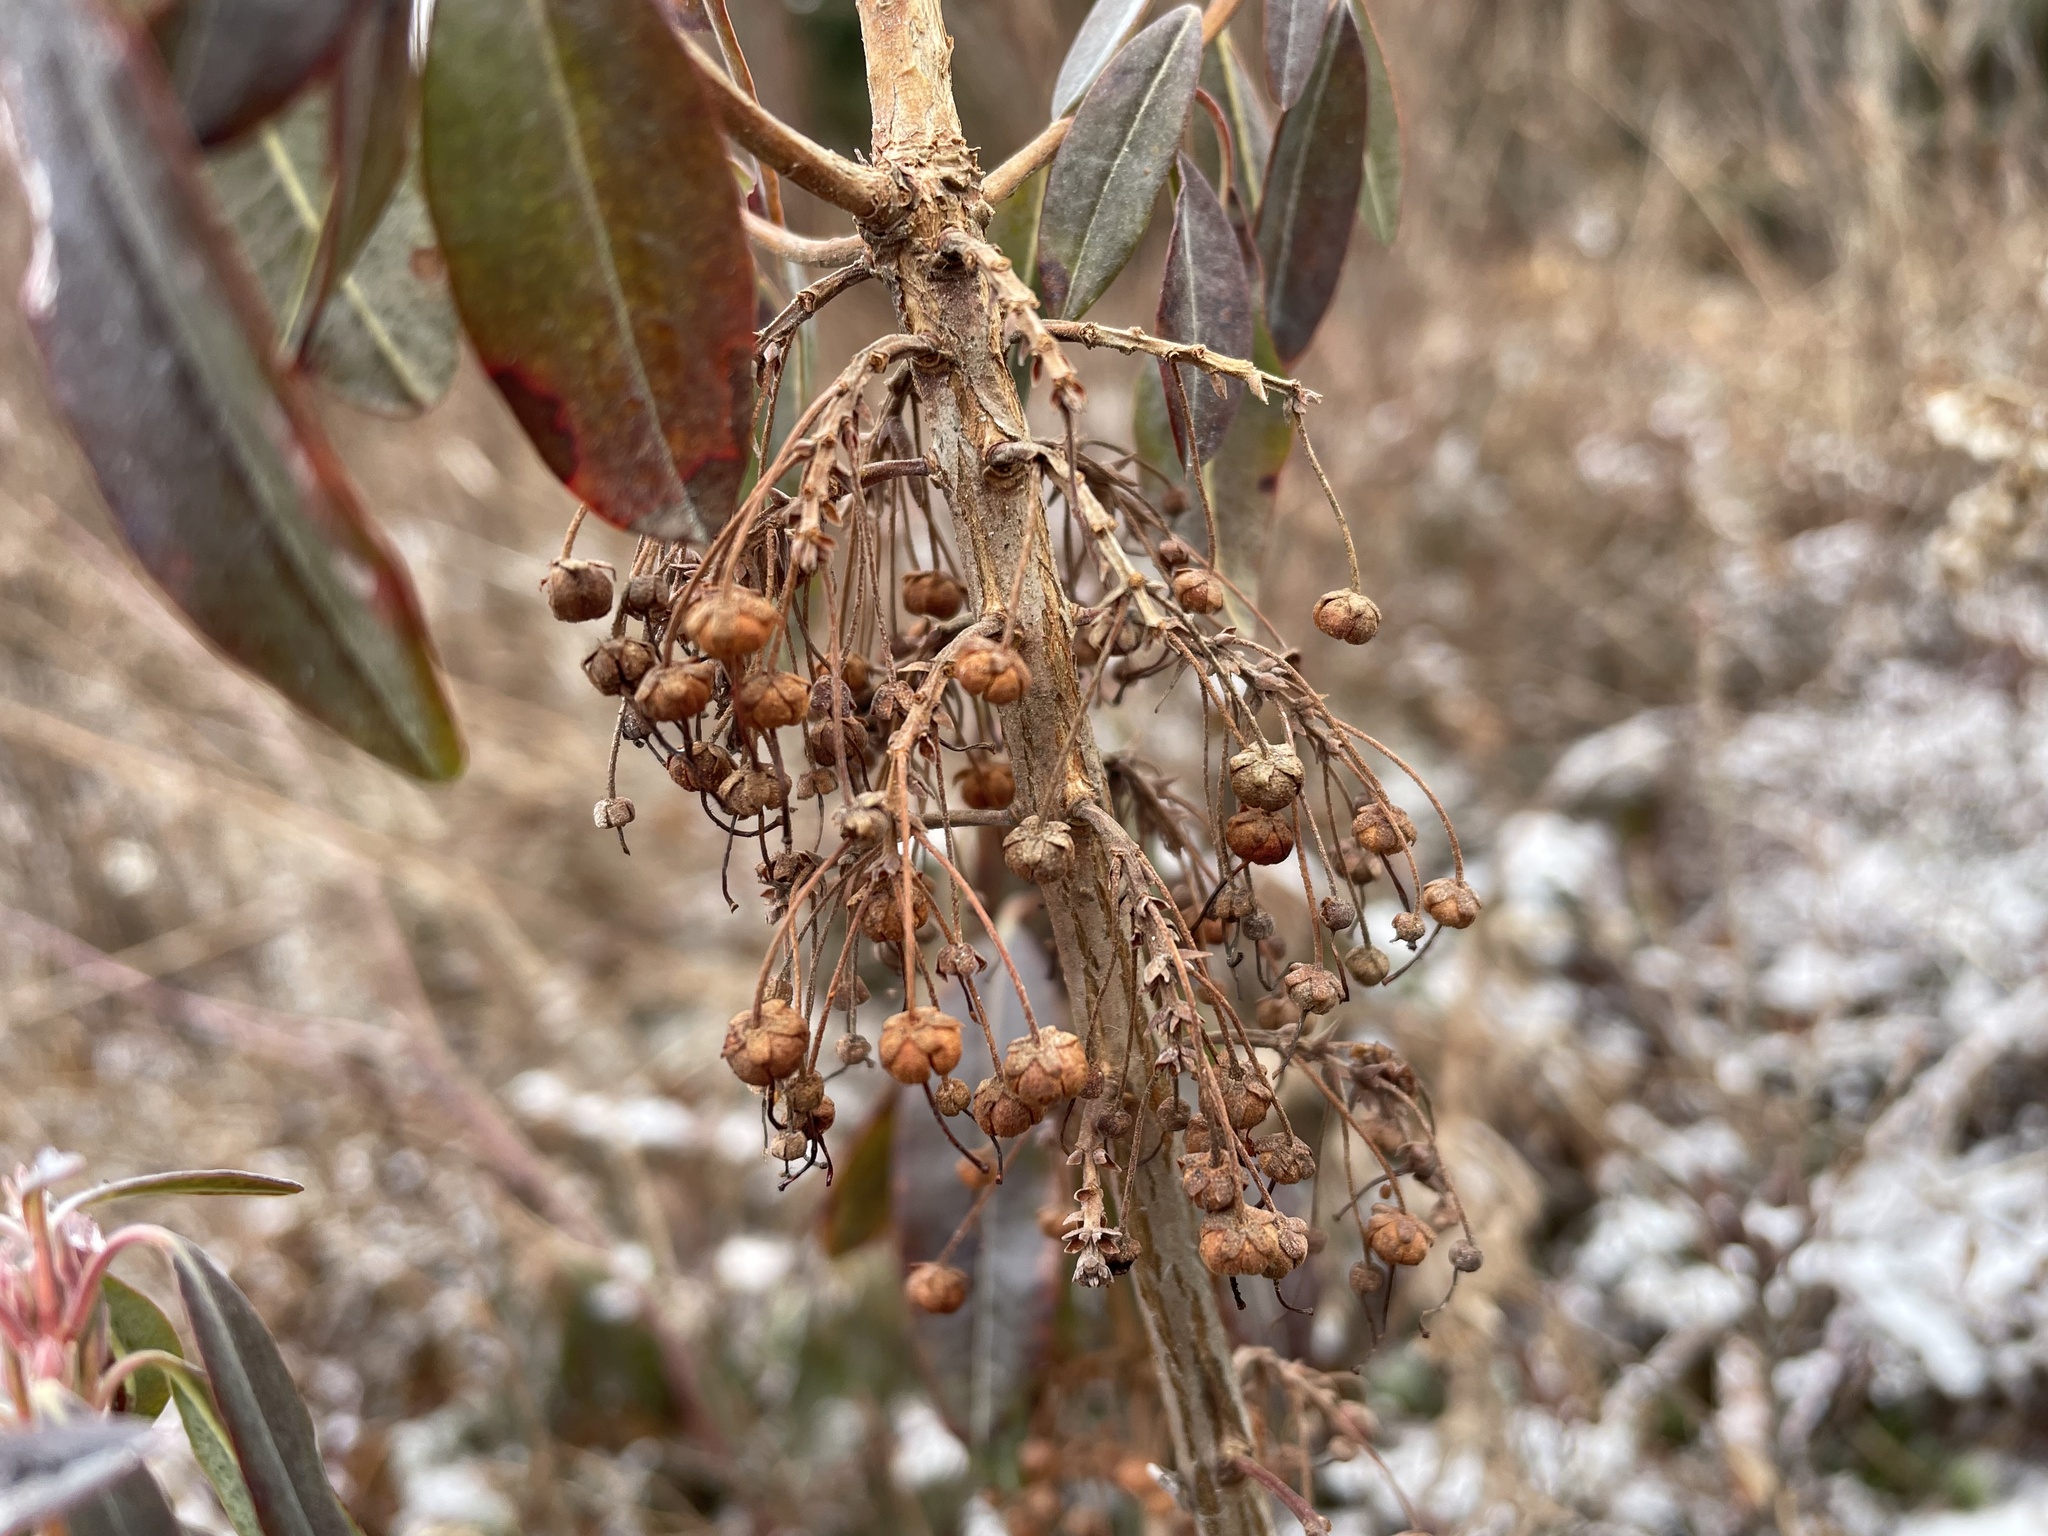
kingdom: Plantae
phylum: Tracheophyta
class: Magnoliopsida
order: Ericales
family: Ericaceae
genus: Kalmia
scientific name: Kalmia angustifolia
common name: Sheep-laurel
